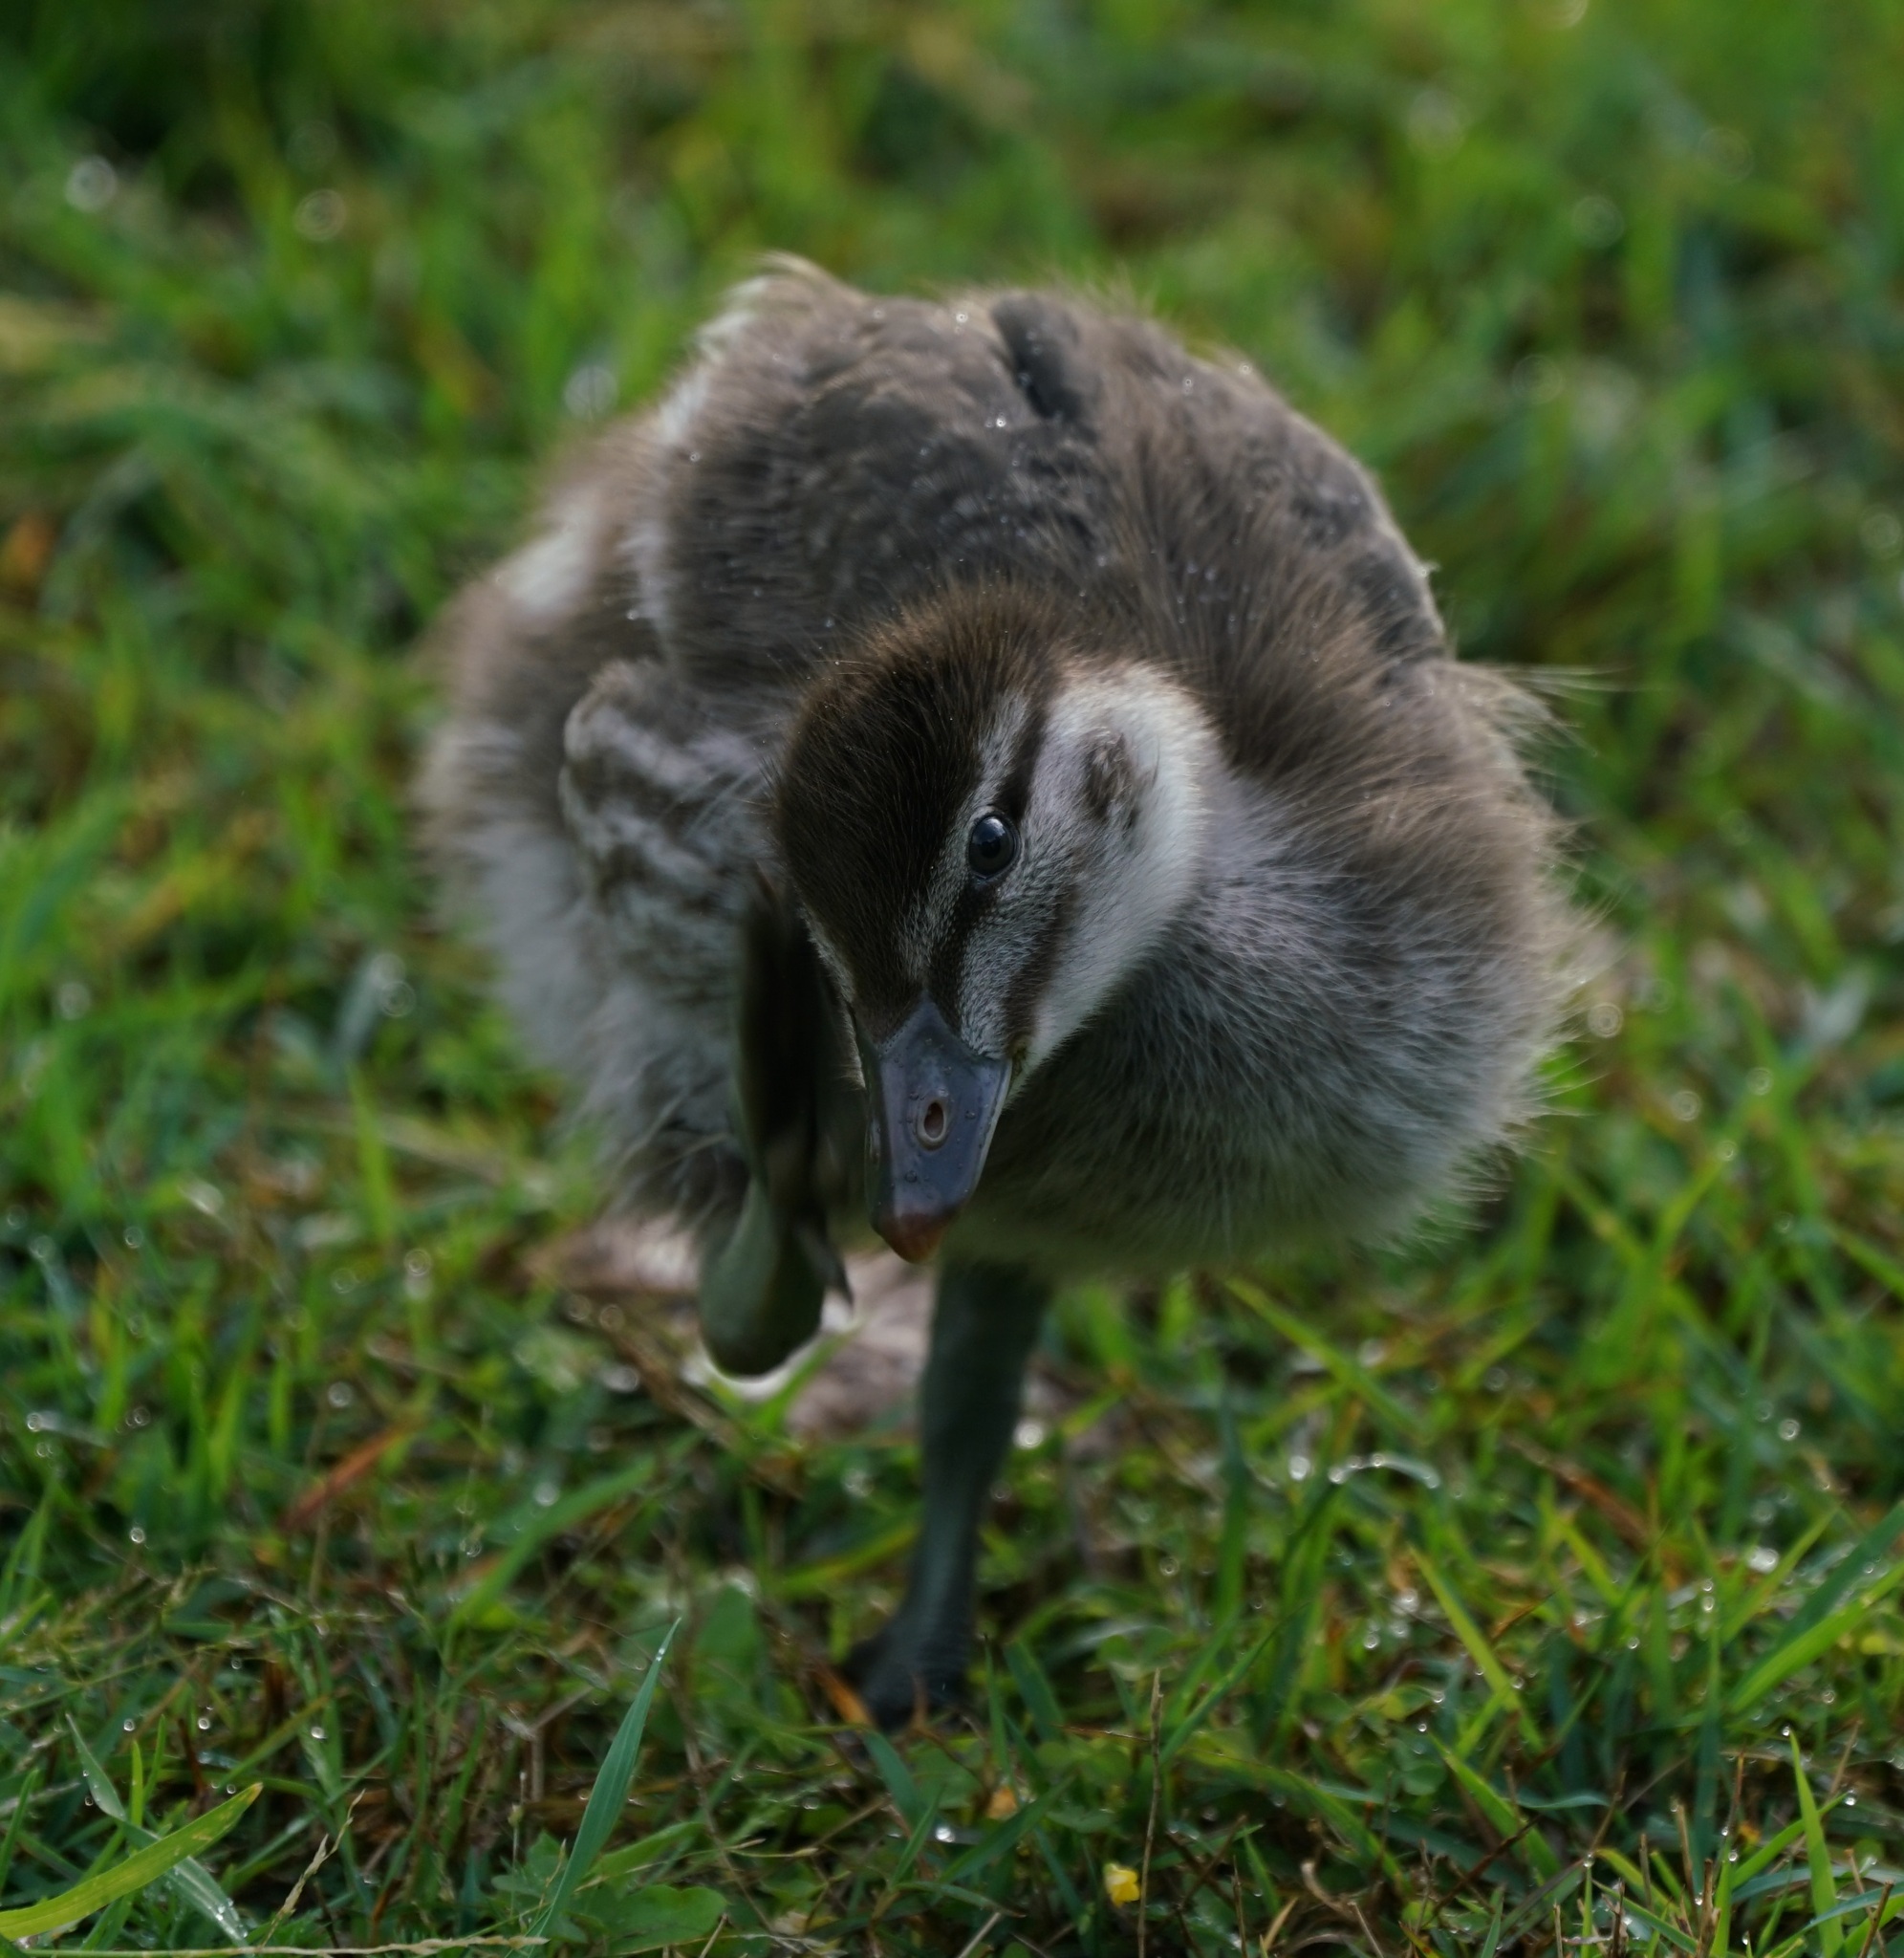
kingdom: Animalia
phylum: Chordata
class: Aves
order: Anseriformes
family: Anatidae
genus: Chenonetta
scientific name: Chenonetta jubata
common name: Maned duck
